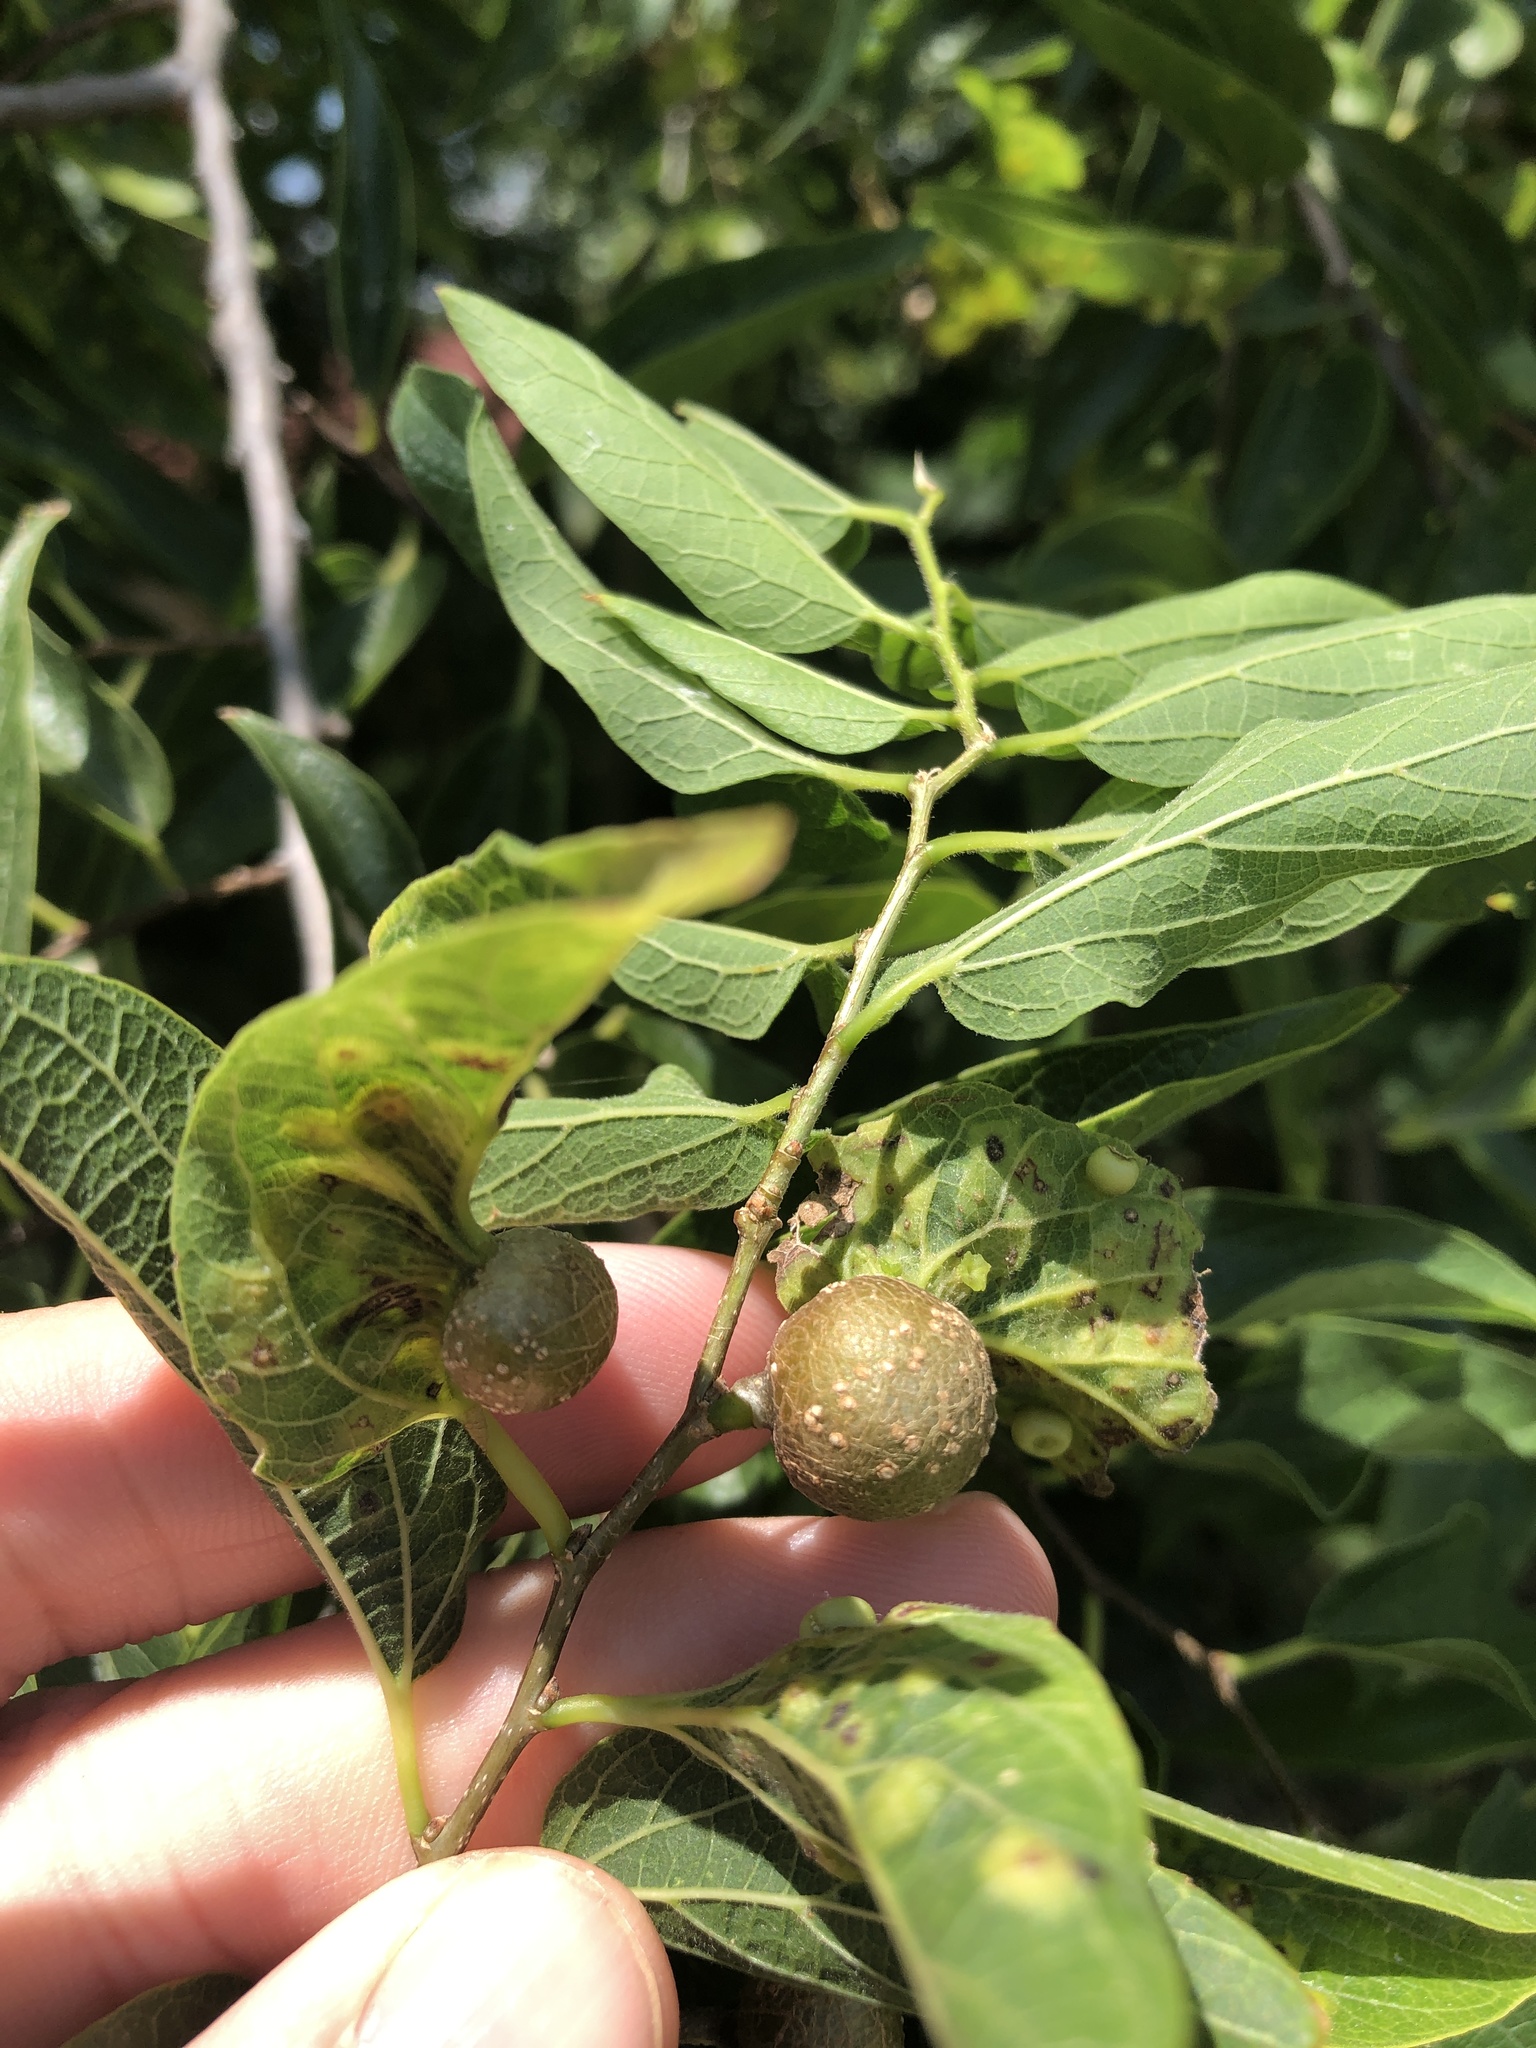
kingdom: Animalia
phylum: Arthropoda
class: Insecta
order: Hemiptera
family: Aphalaridae
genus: Pachypsylla
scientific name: Pachypsylla venusta
